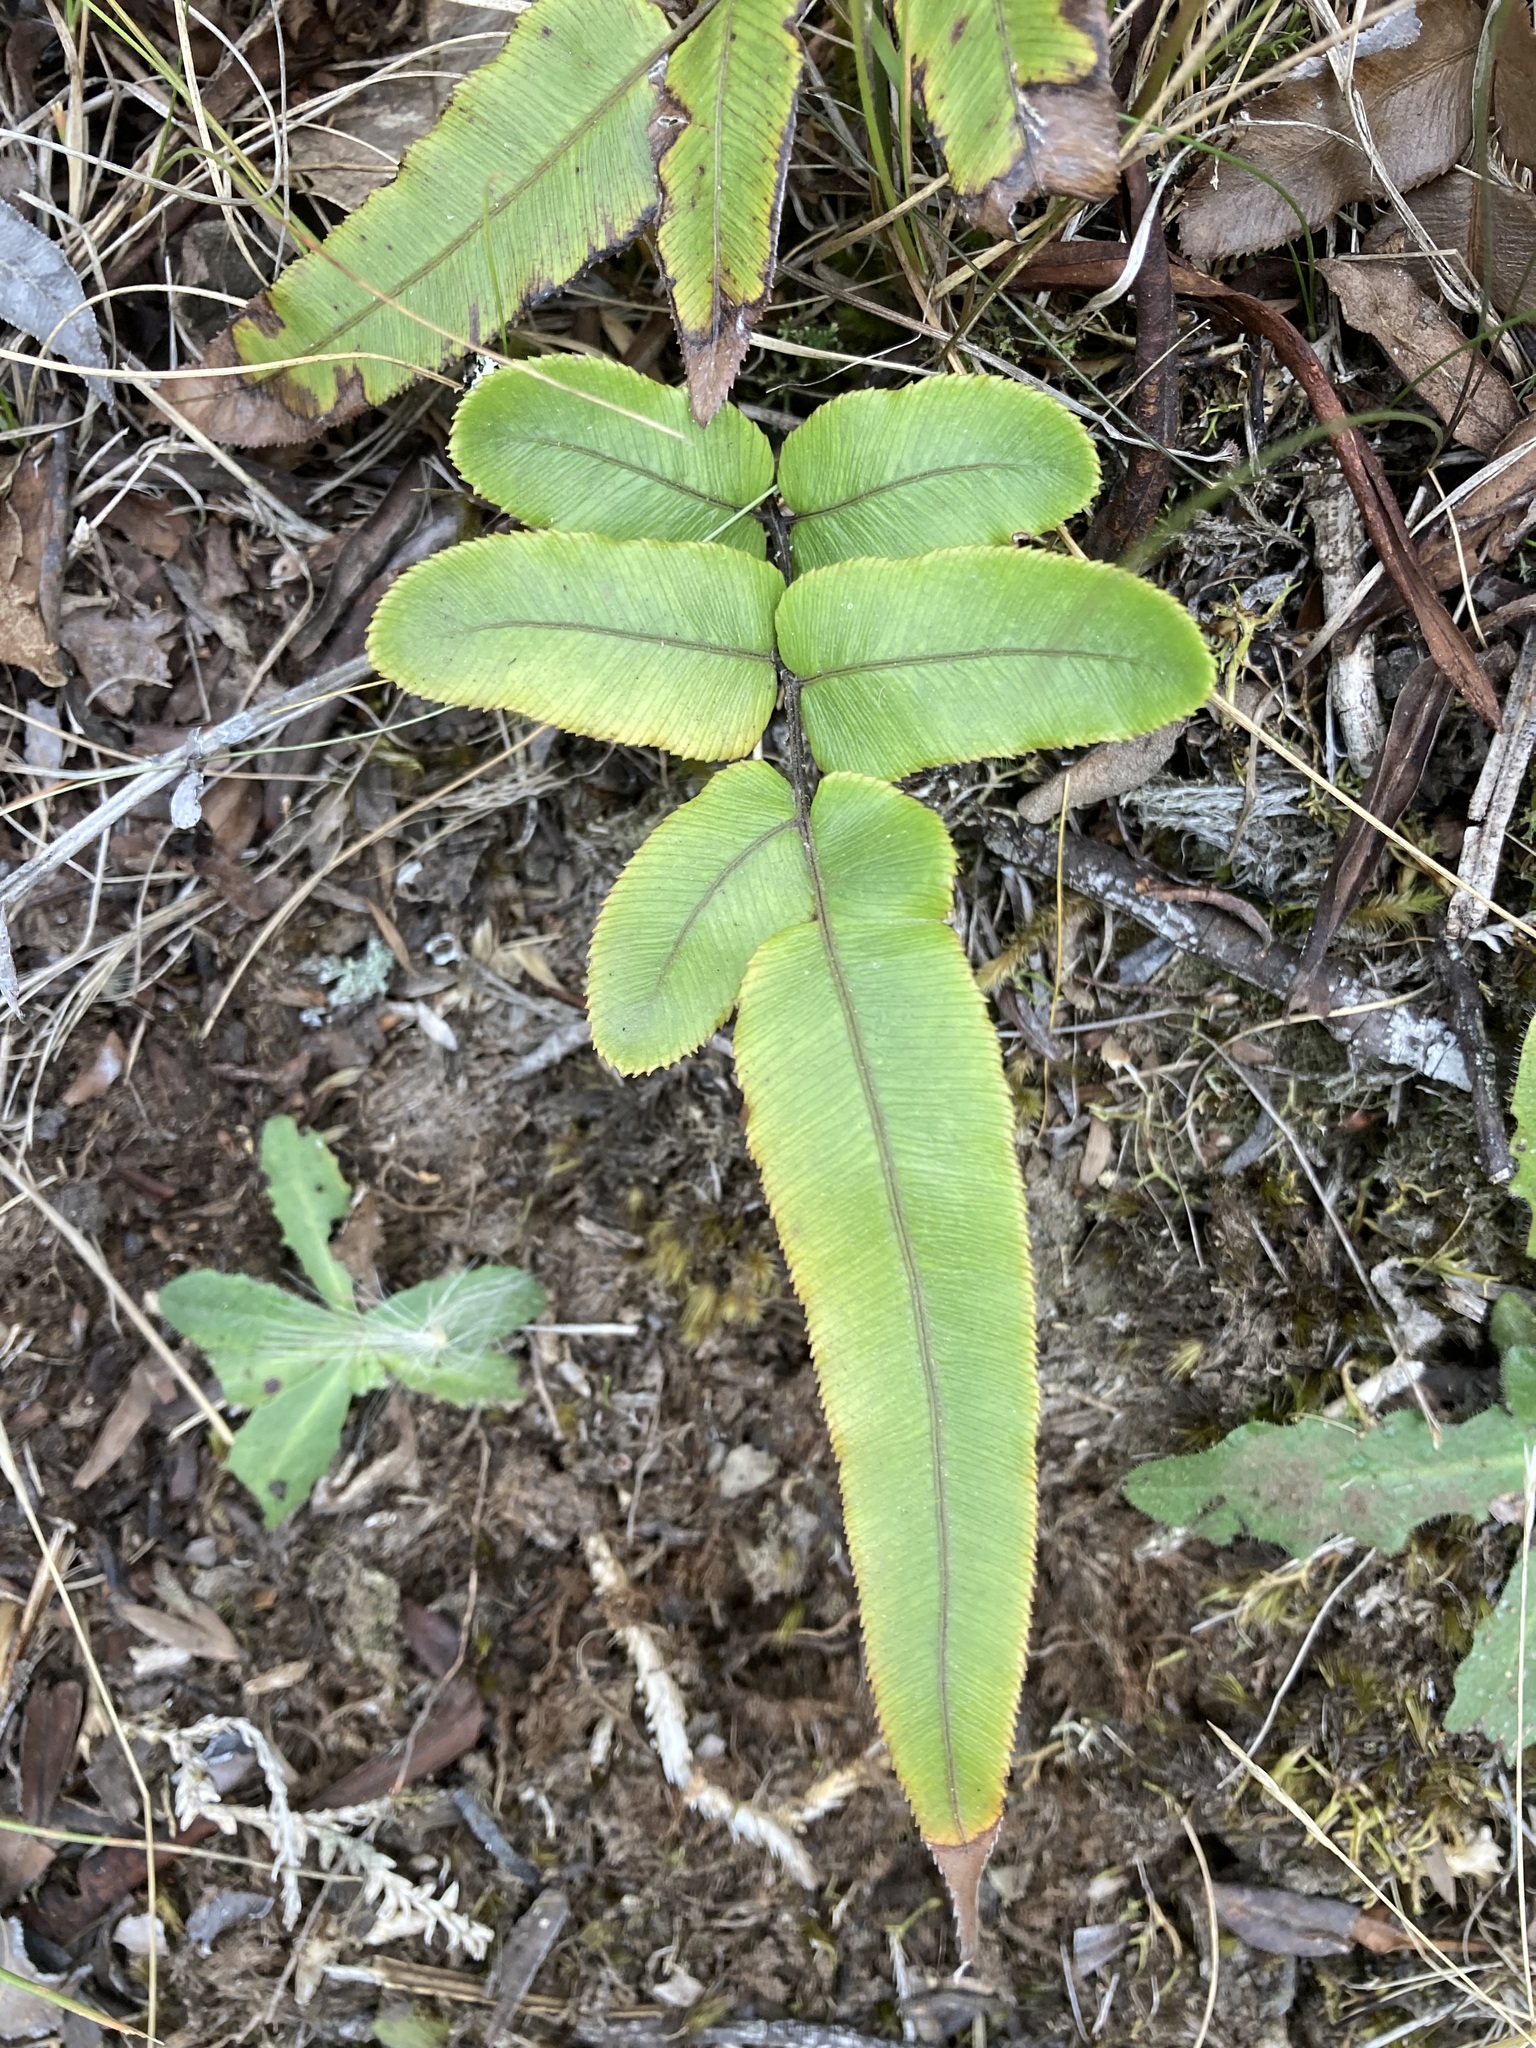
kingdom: Plantae
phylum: Tracheophyta
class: Polypodiopsida
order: Polypodiales
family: Blechnaceae
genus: Parablechnum
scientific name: Parablechnum procerum
